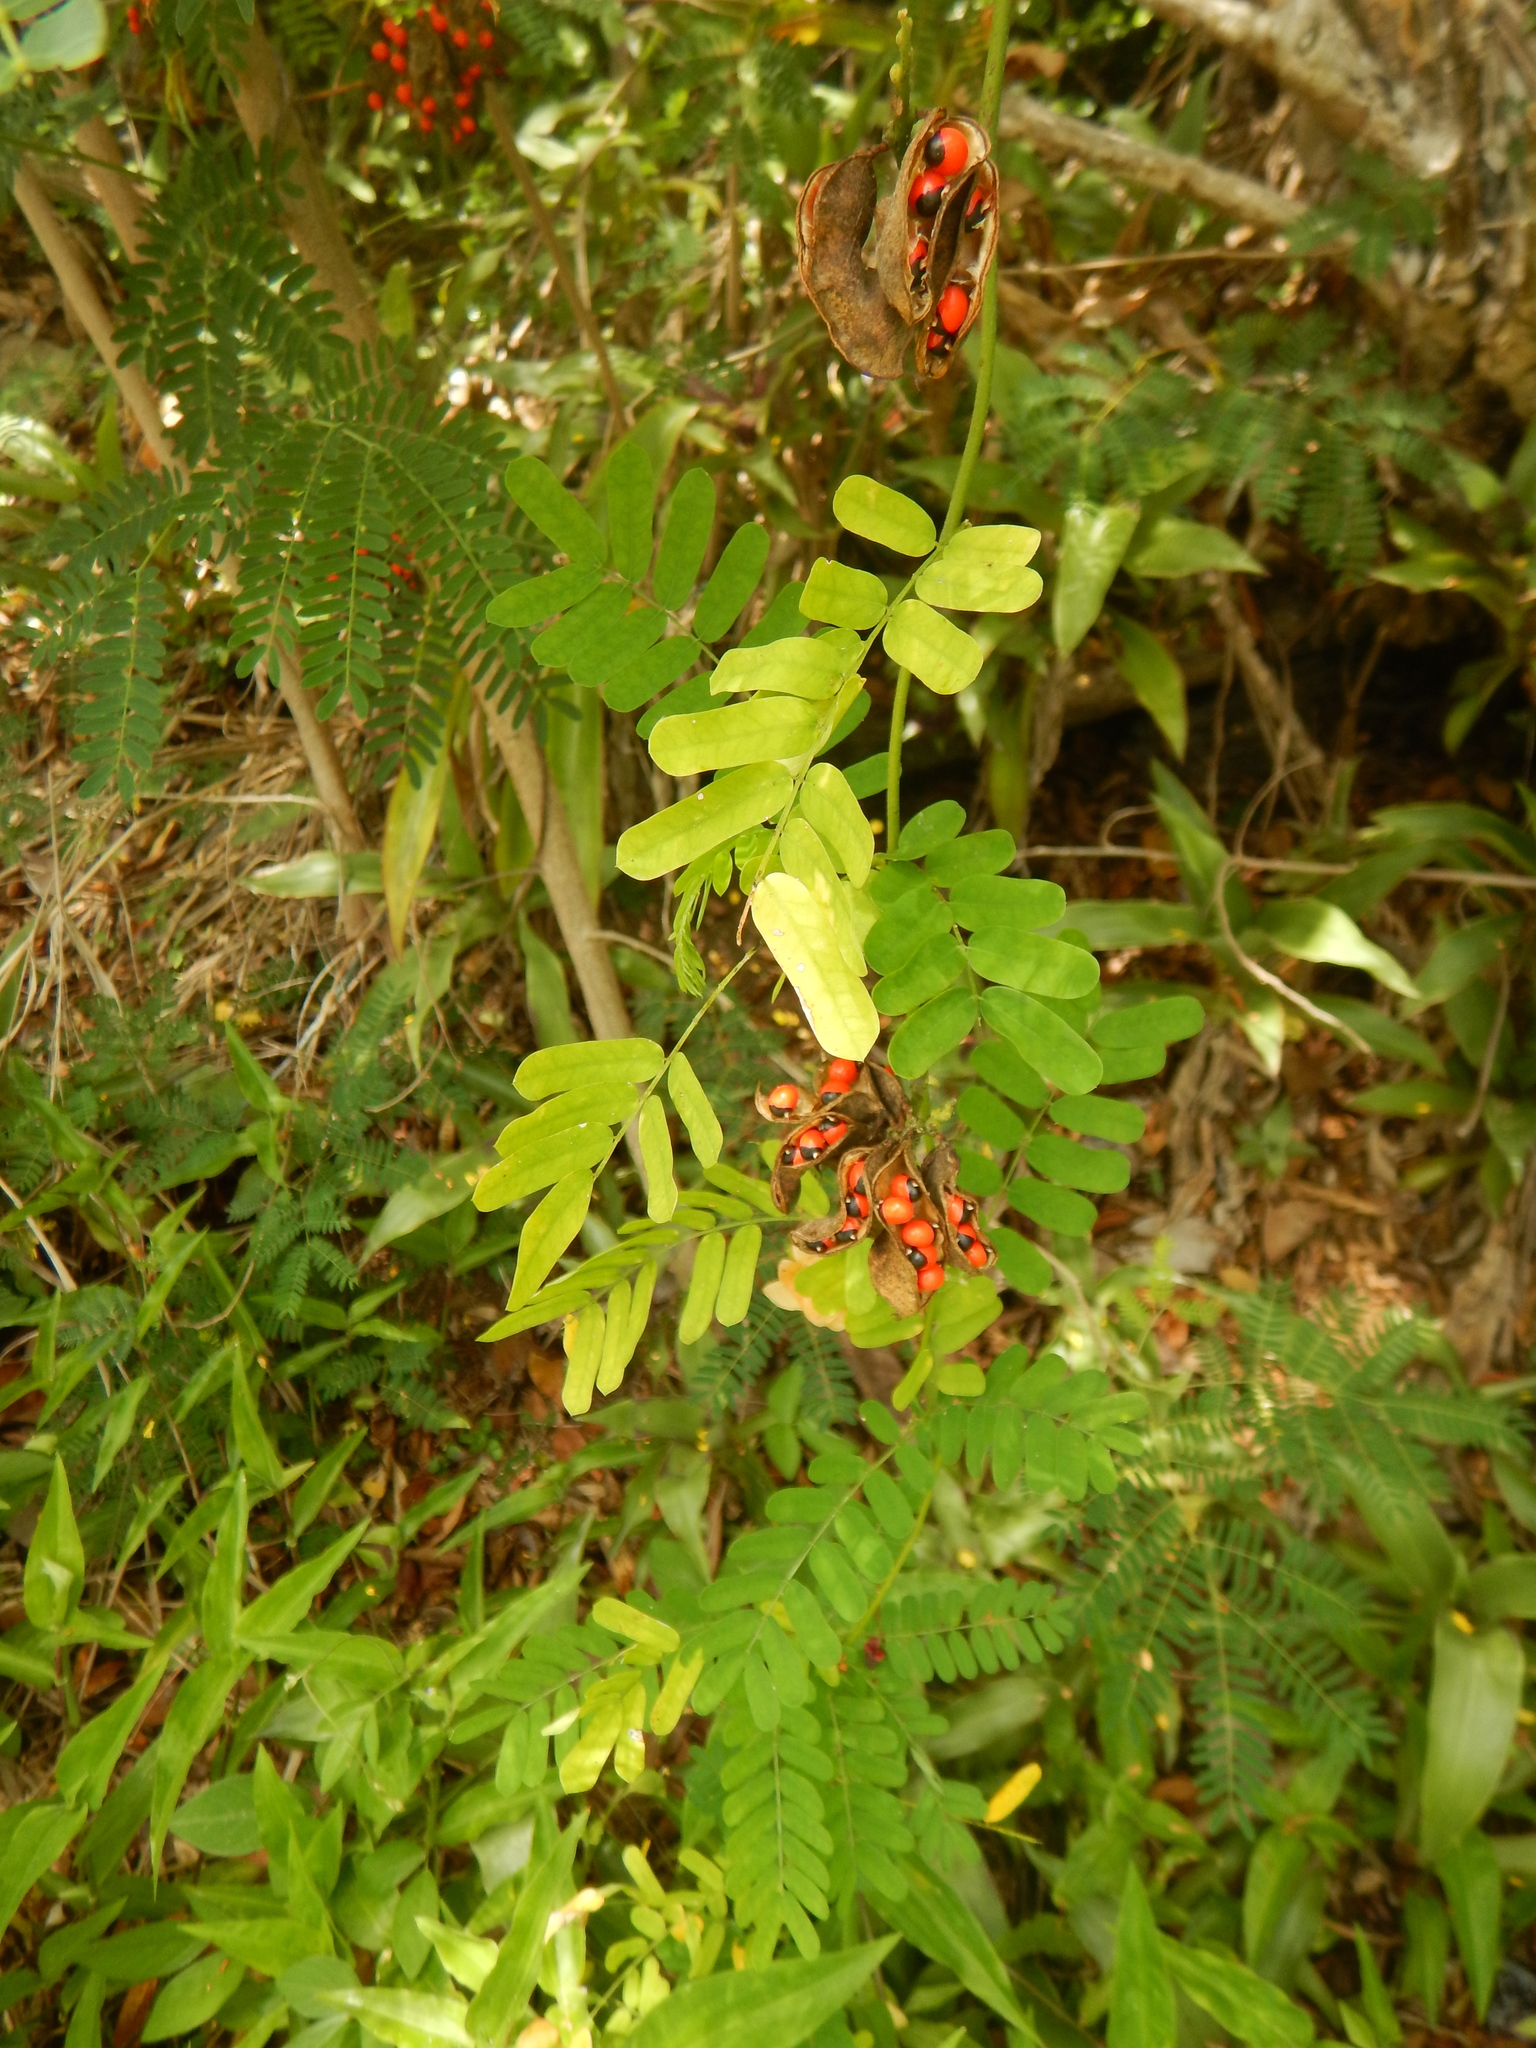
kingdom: Plantae
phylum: Tracheophyta
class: Magnoliopsida
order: Fabales
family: Fabaceae
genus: Abrus
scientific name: Abrus precatorius
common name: Rosarypea
